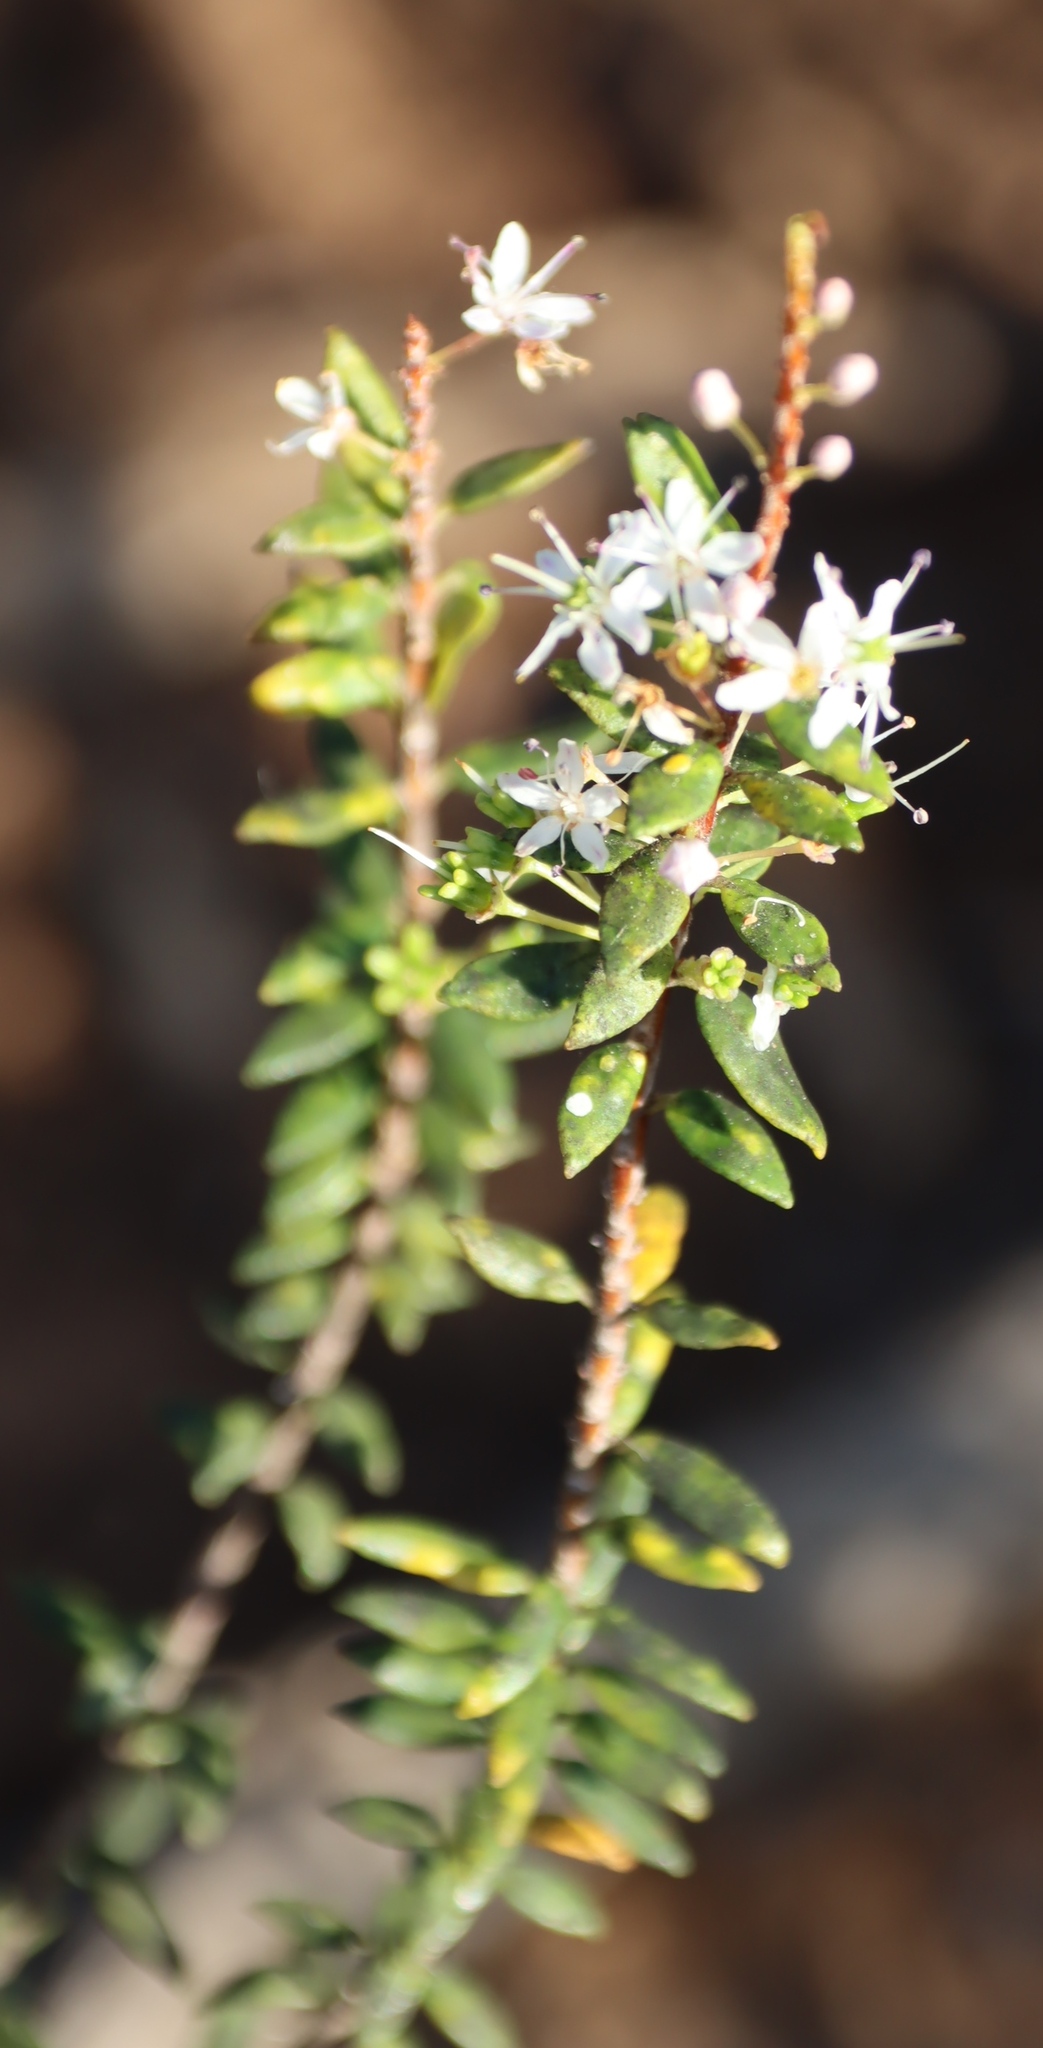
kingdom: Plantae
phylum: Tracheophyta
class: Magnoliopsida
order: Sapindales
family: Rutaceae
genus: Agathosma
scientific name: Agathosma ovata
